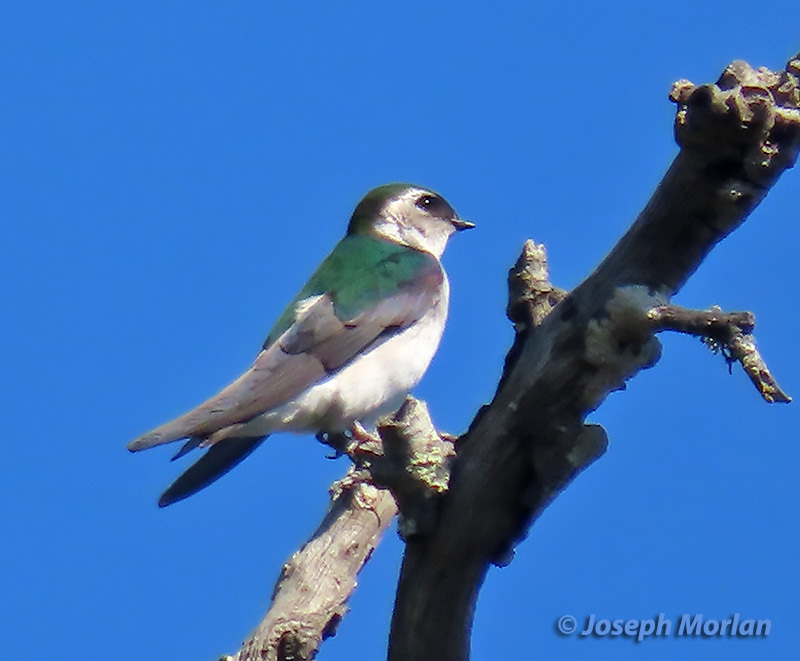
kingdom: Animalia
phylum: Chordata
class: Aves
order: Passeriformes
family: Hirundinidae
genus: Tachycineta
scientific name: Tachycineta thalassina
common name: Violet-green swallow
